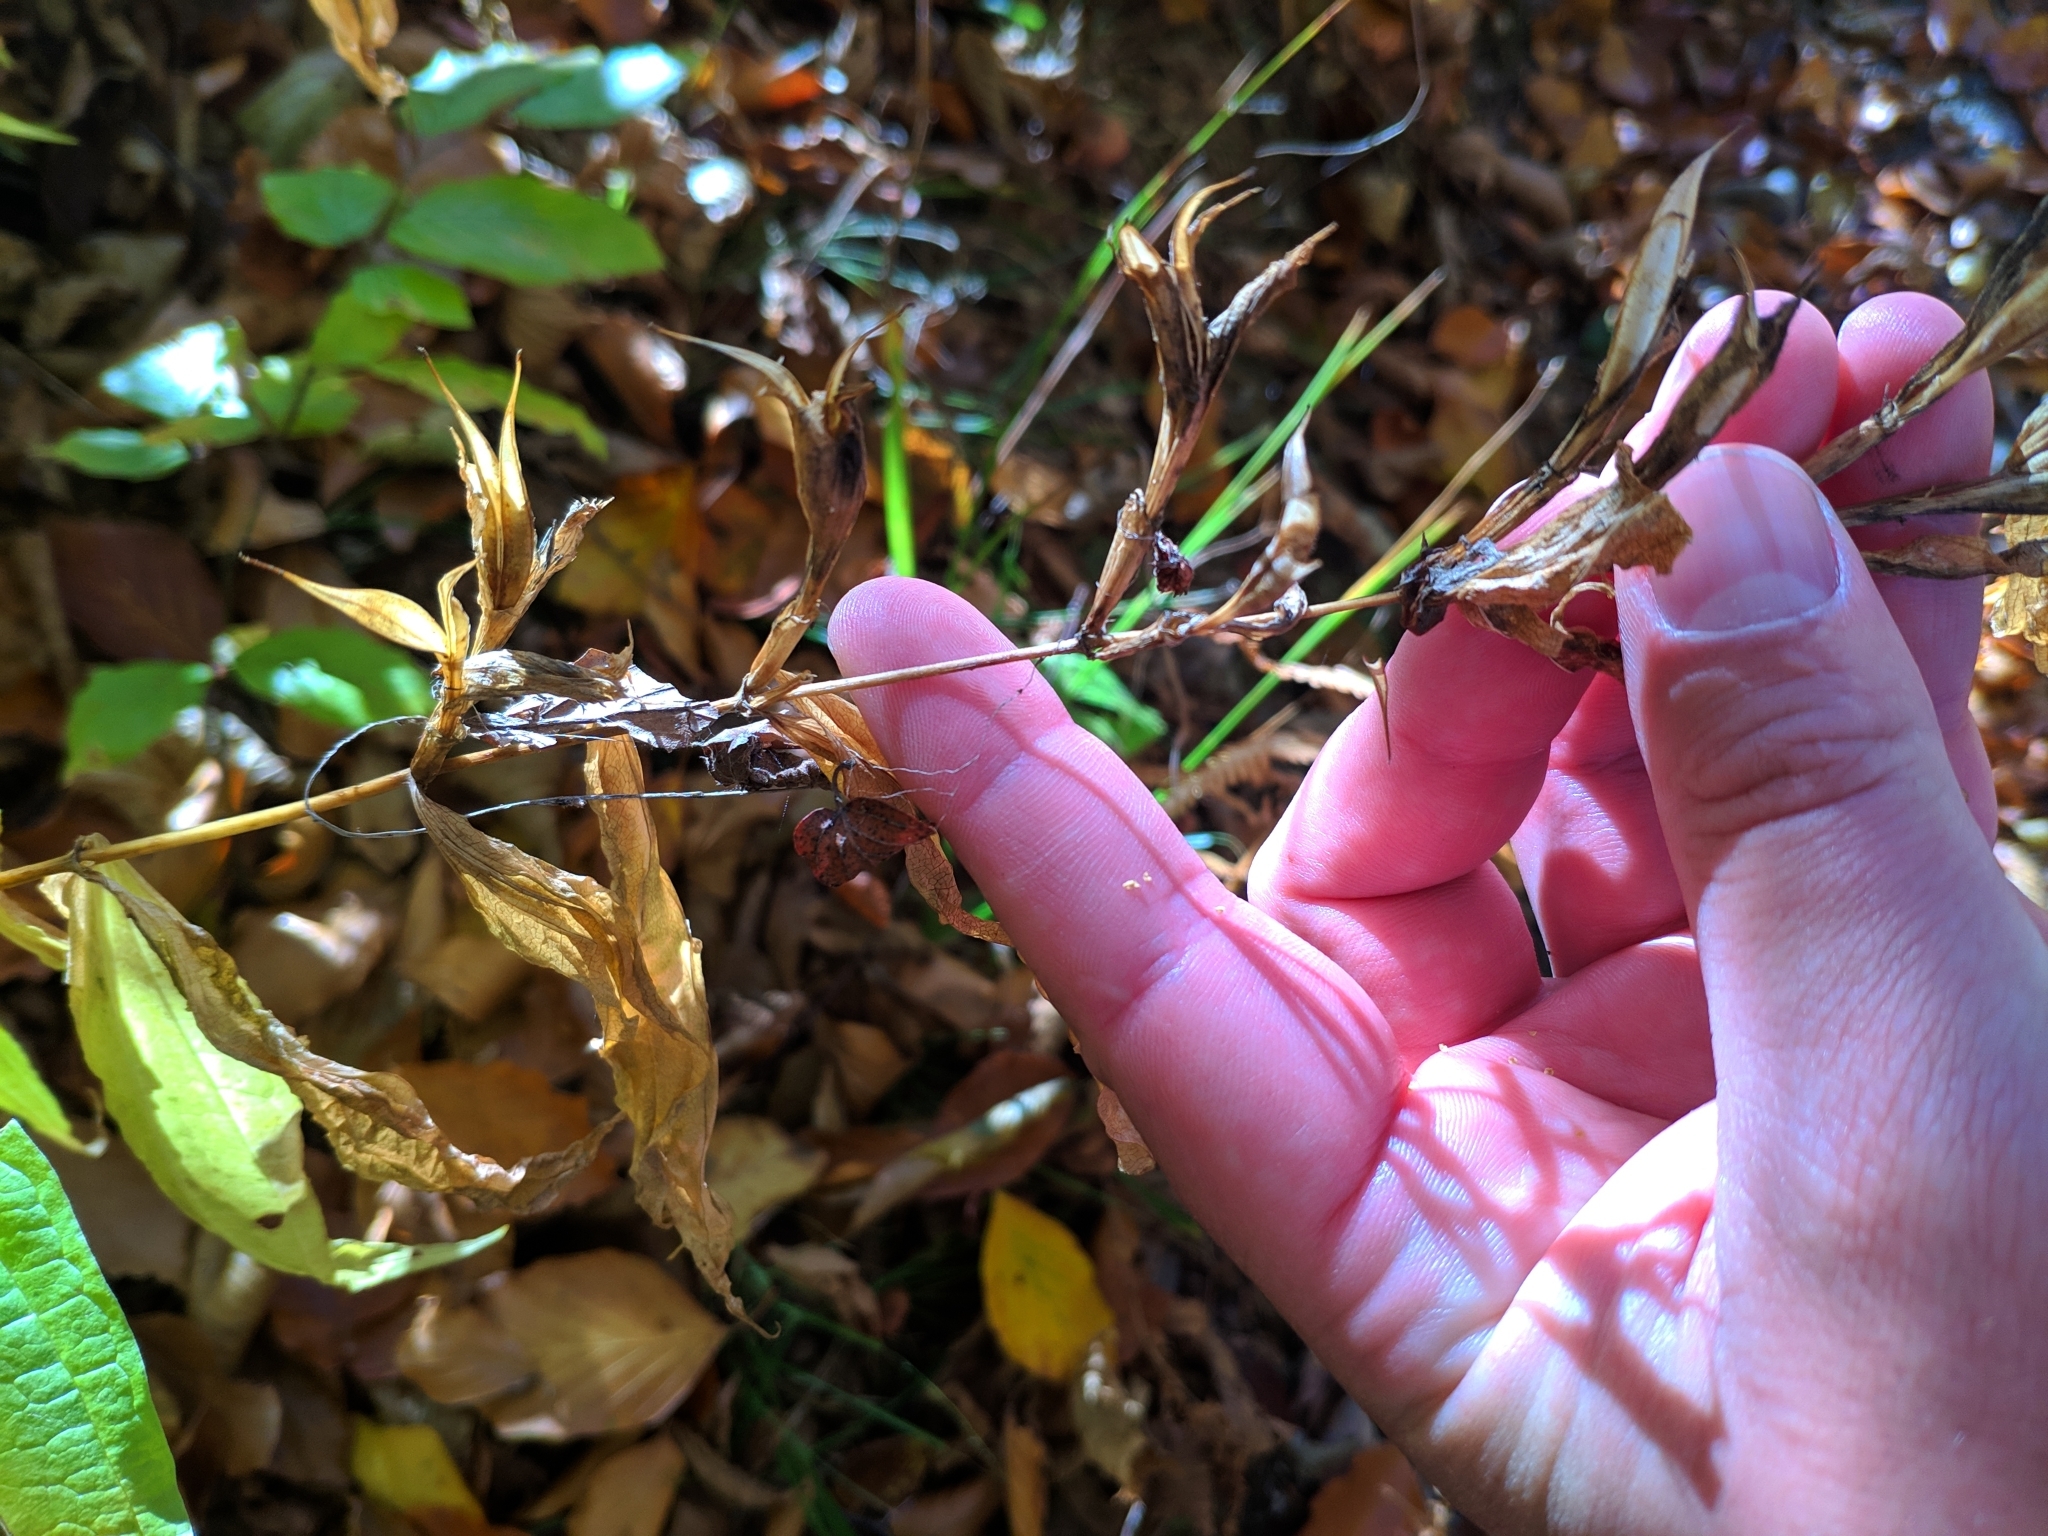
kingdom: Plantae
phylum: Tracheophyta
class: Magnoliopsida
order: Gentianales
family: Gentianaceae
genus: Gentiana
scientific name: Gentiana asclepiadea
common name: Willow gentian
